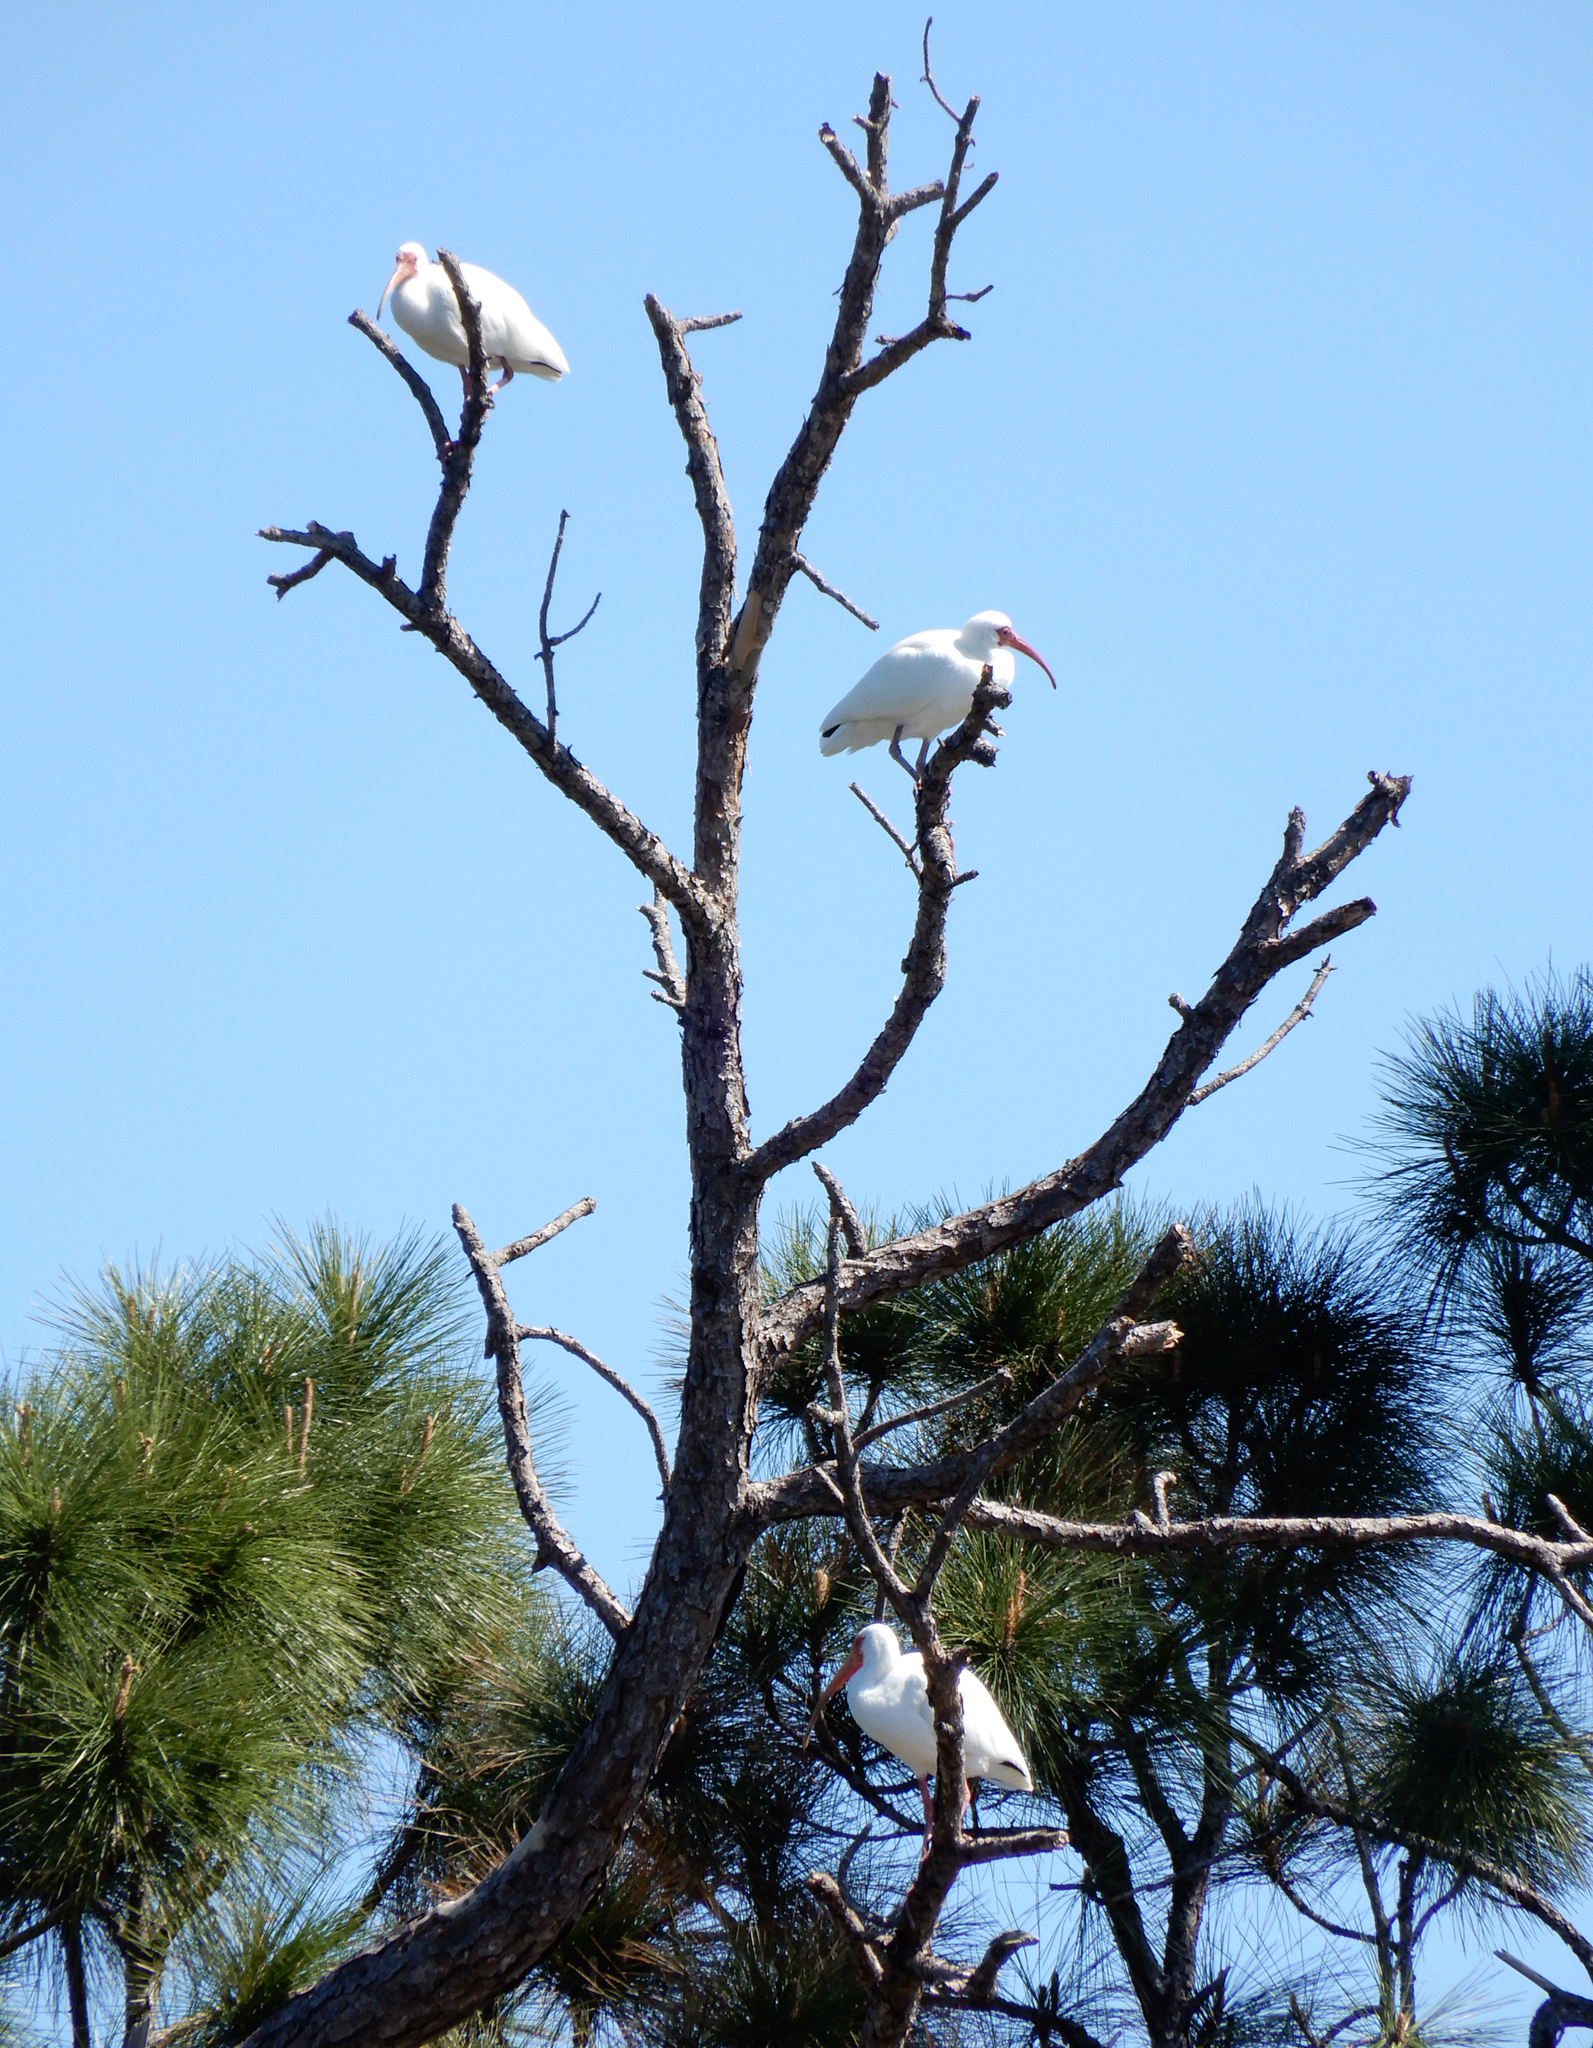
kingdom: Animalia
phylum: Chordata
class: Aves
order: Pelecaniformes
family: Threskiornithidae
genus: Eudocimus
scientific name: Eudocimus albus
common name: White ibis
